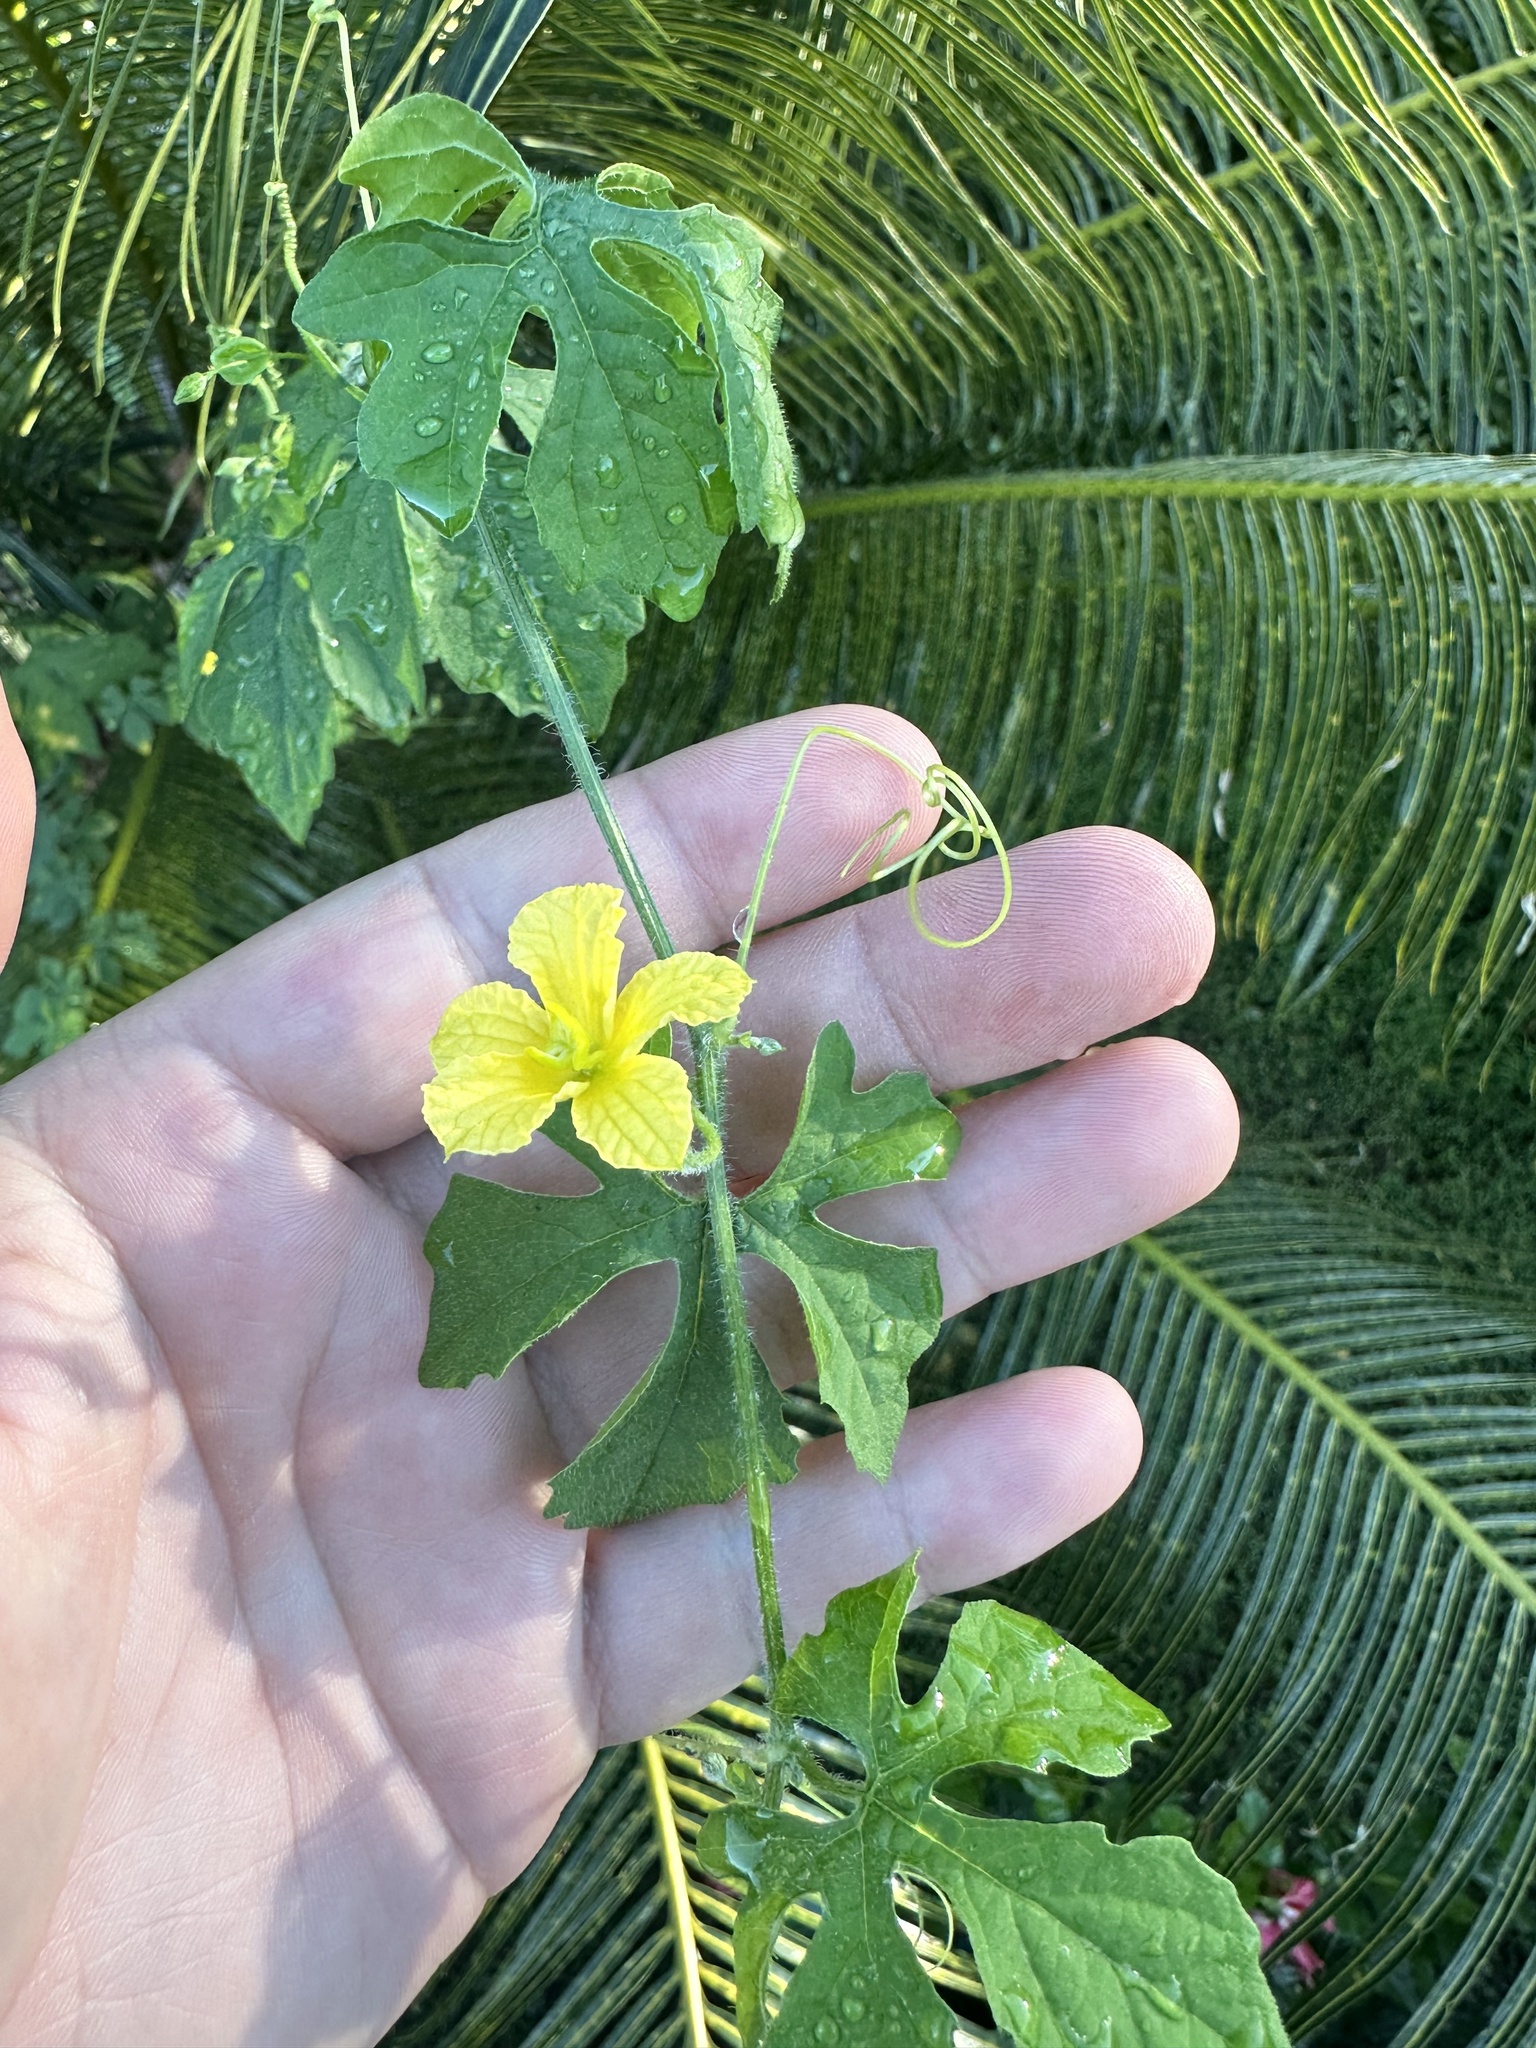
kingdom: Plantae
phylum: Tracheophyta
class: Magnoliopsida
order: Cucurbitales
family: Cucurbitaceae
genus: Momordica
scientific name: Momordica charantia
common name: Balsampear
